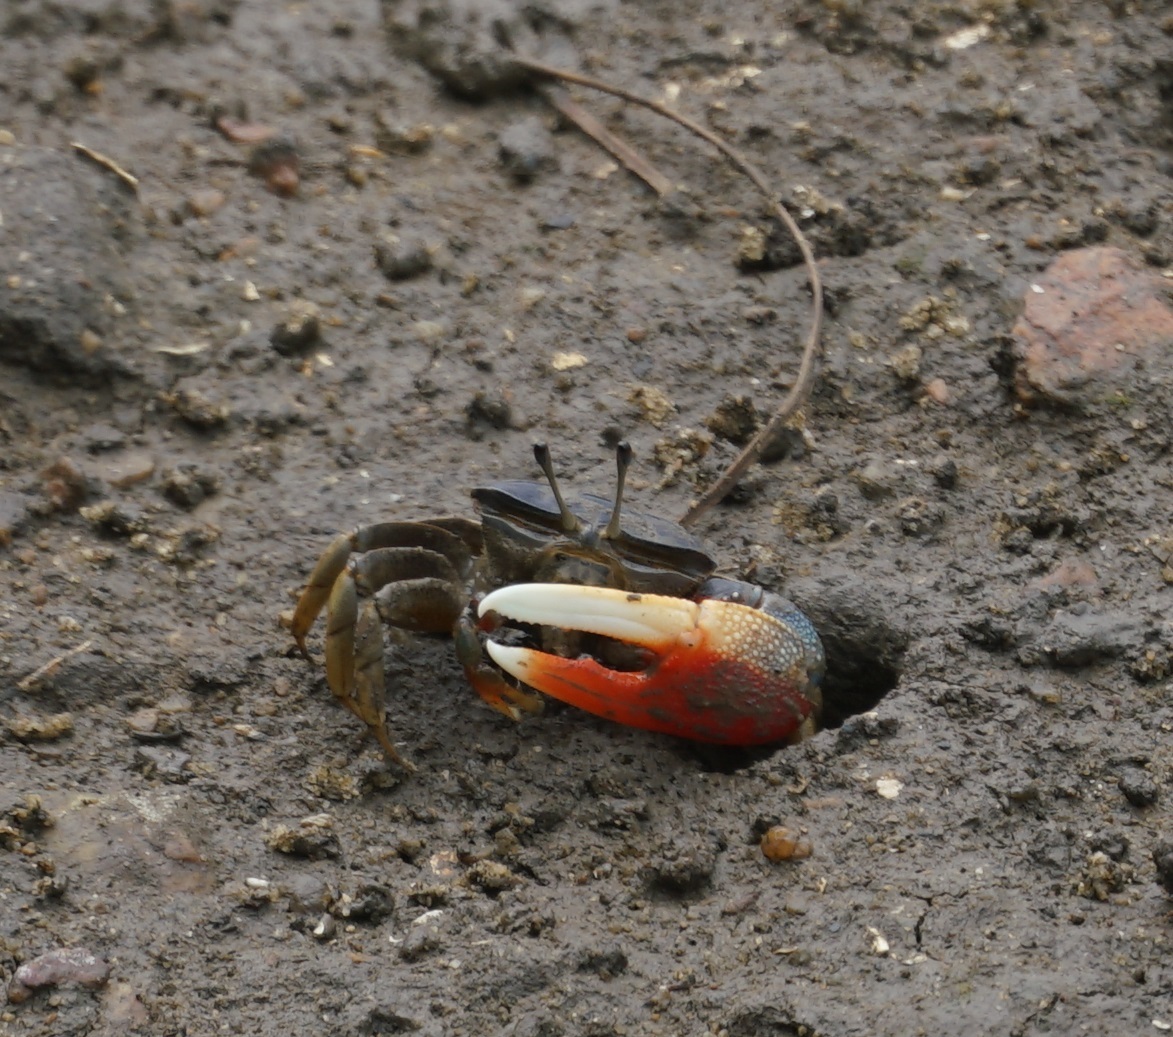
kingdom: Animalia
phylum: Arthropoda
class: Malacostraca
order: Decapoda
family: Ocypodidae
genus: Tubuca
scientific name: Tubuca dussumieri
